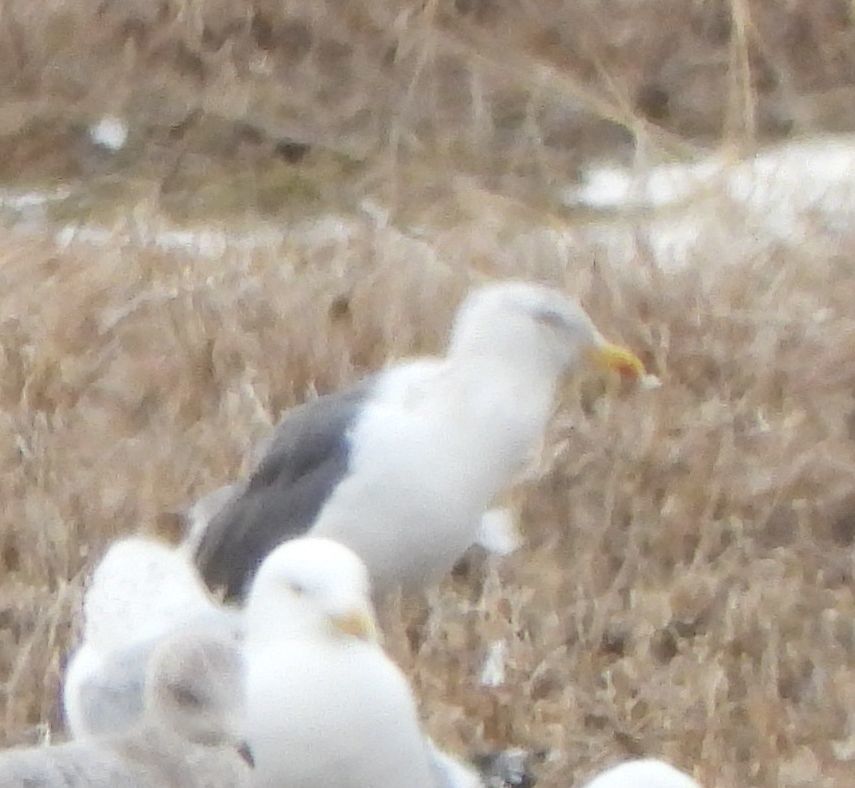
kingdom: Animalia
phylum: Chordata
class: Aves
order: Charadriiformes
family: Laridae
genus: Larus
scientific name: Larus
